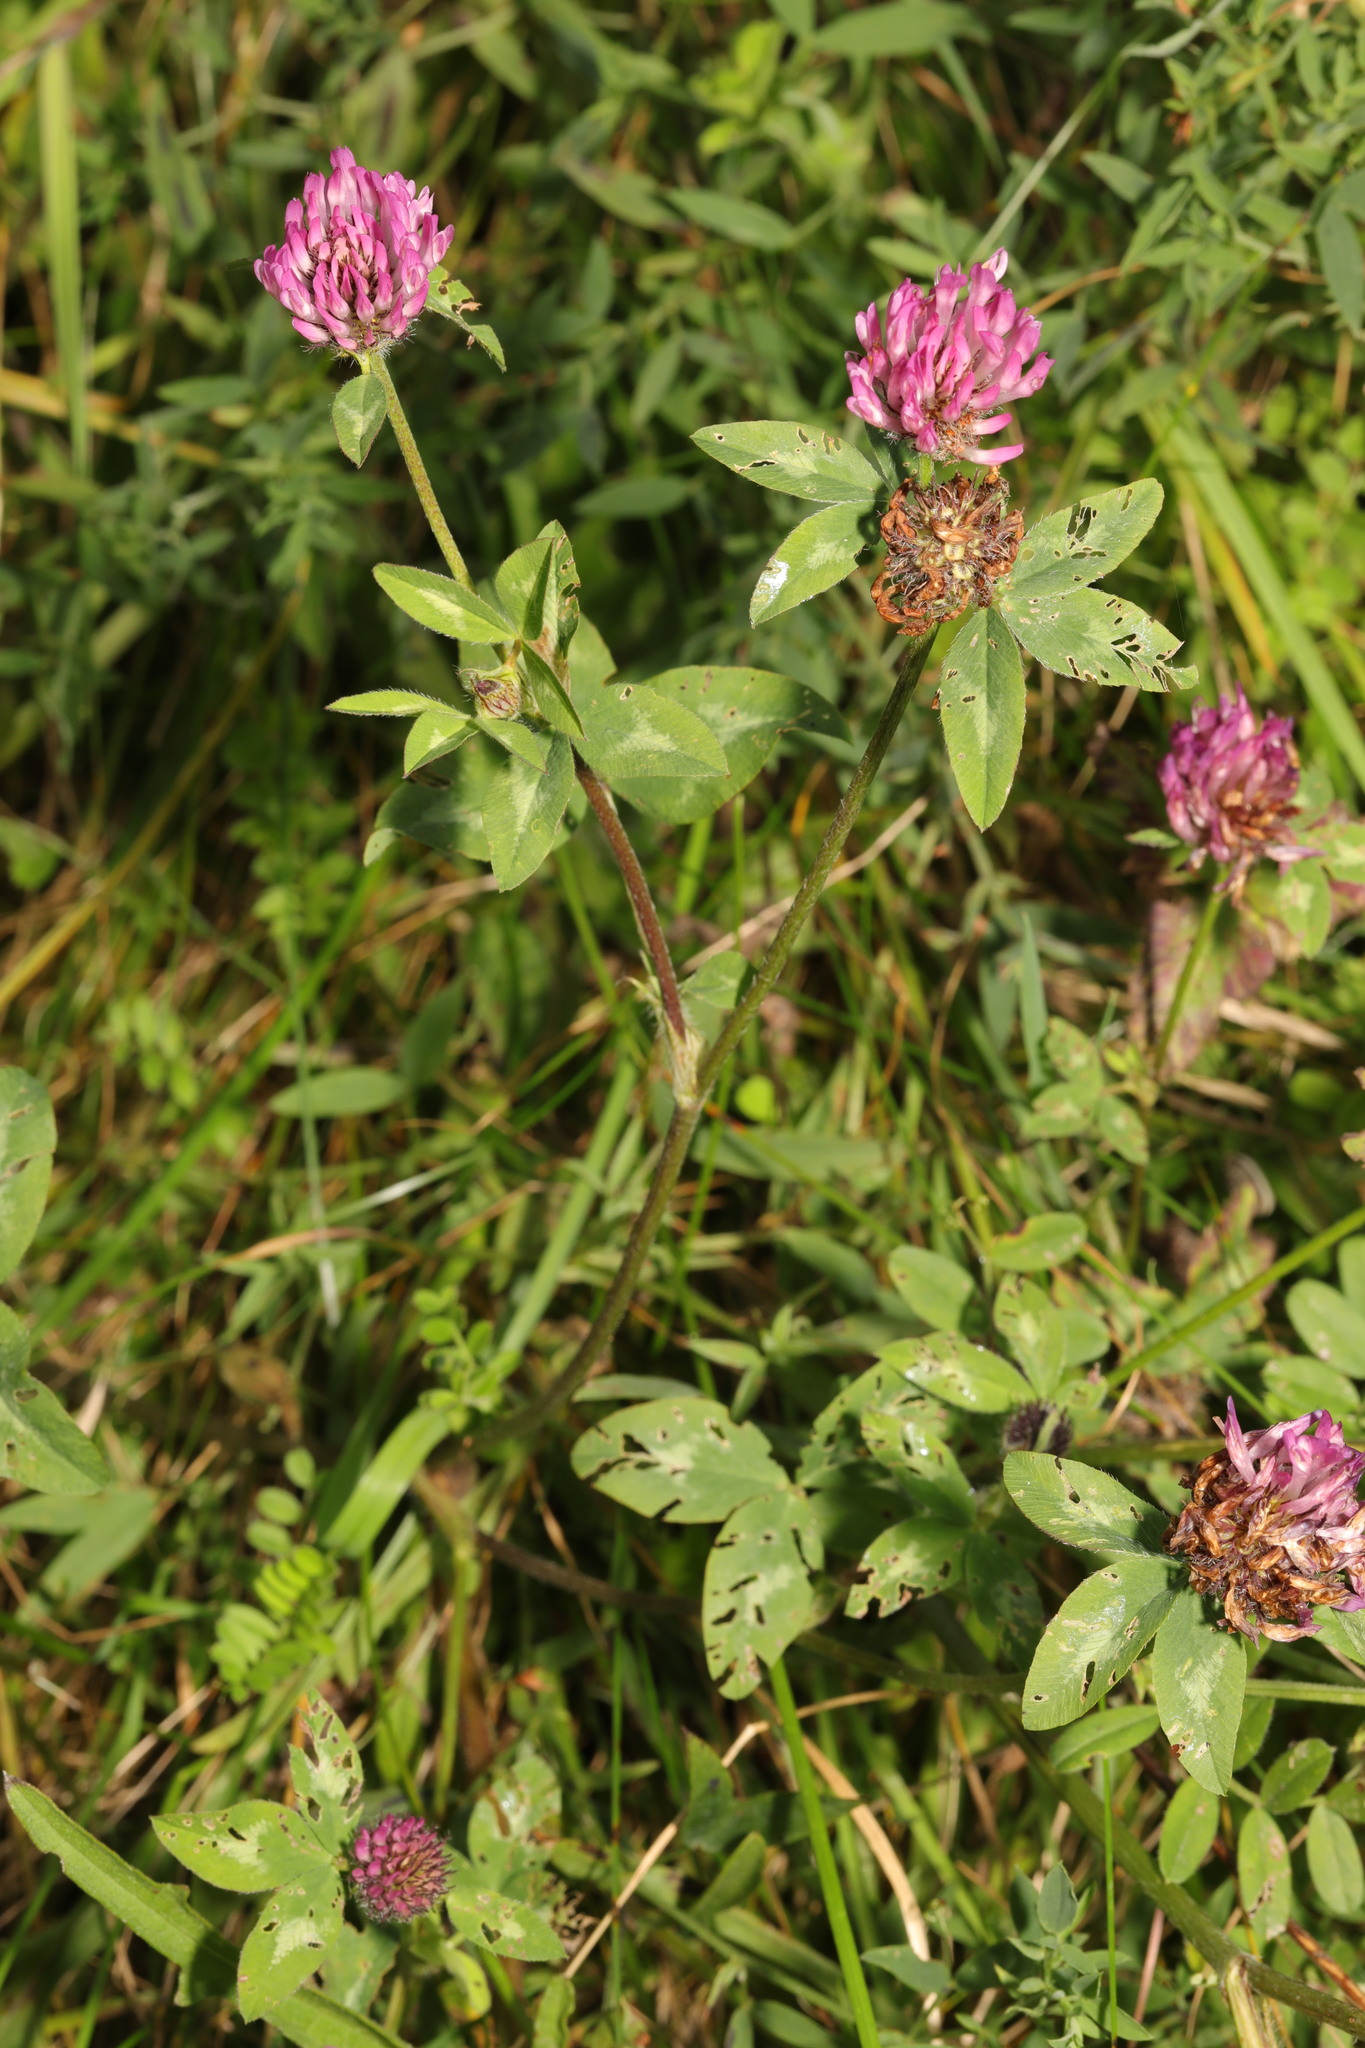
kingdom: Plantae
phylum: Tracheophyta
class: Magnoliopsida
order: Fabales
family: Fabaceae
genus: Trifolium
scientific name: Trifolium pratense
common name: Red clover
